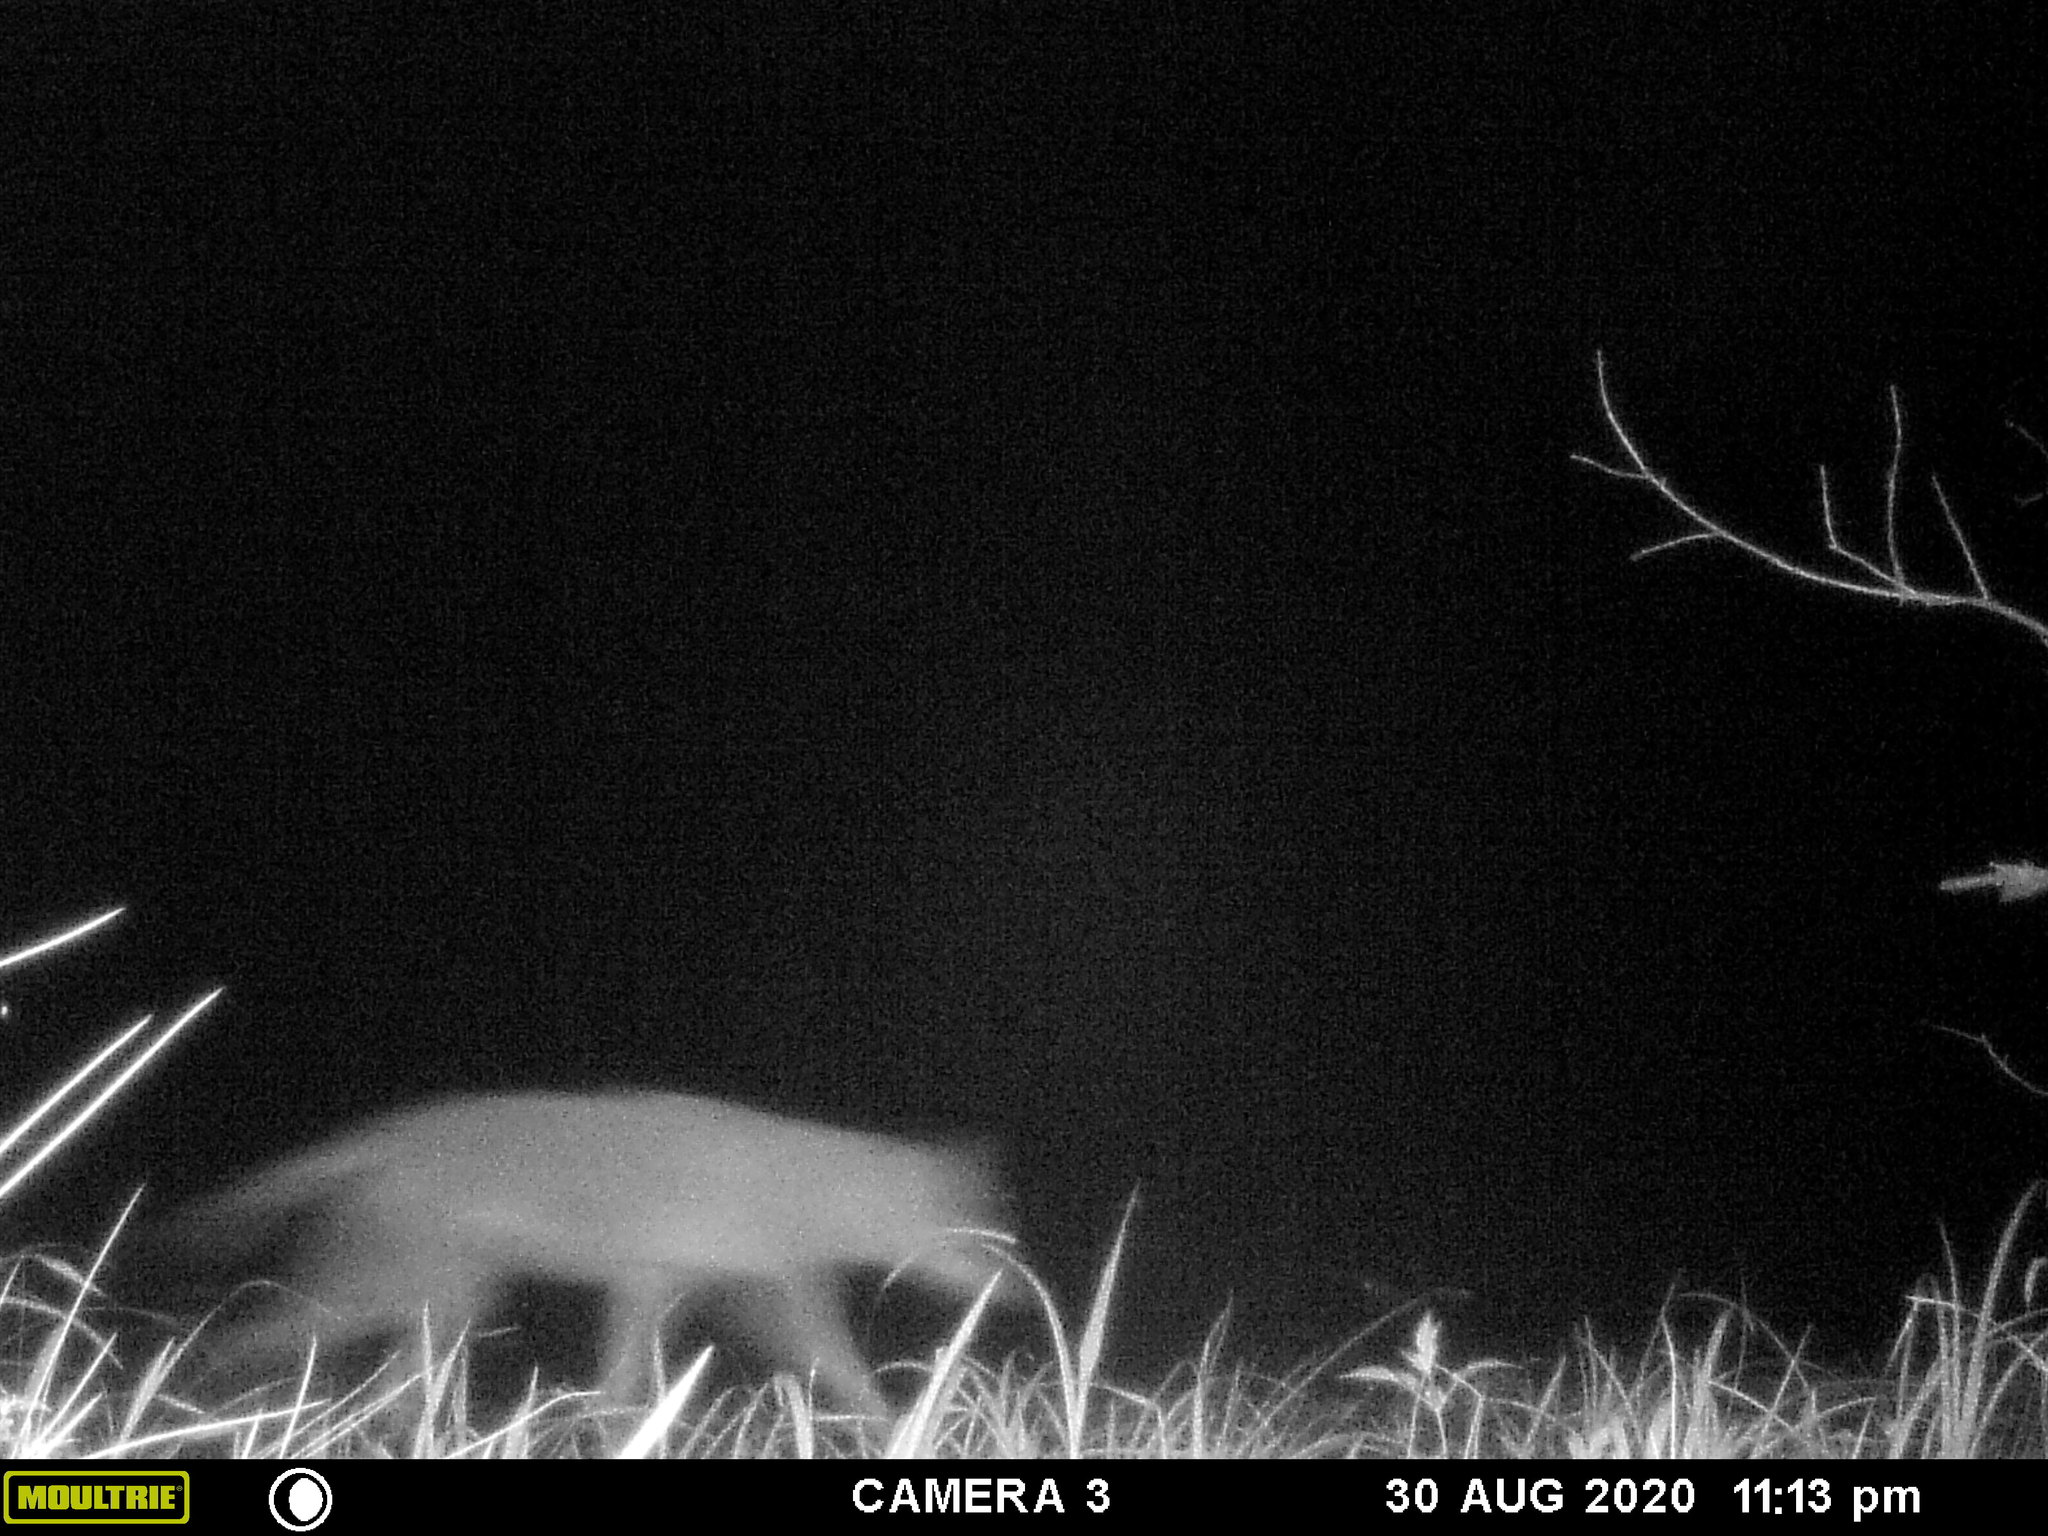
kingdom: Animalia
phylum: Chordata
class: Mammalia
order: Carnivora
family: Canidae
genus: Canis
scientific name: Canis latrans
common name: Coyote
